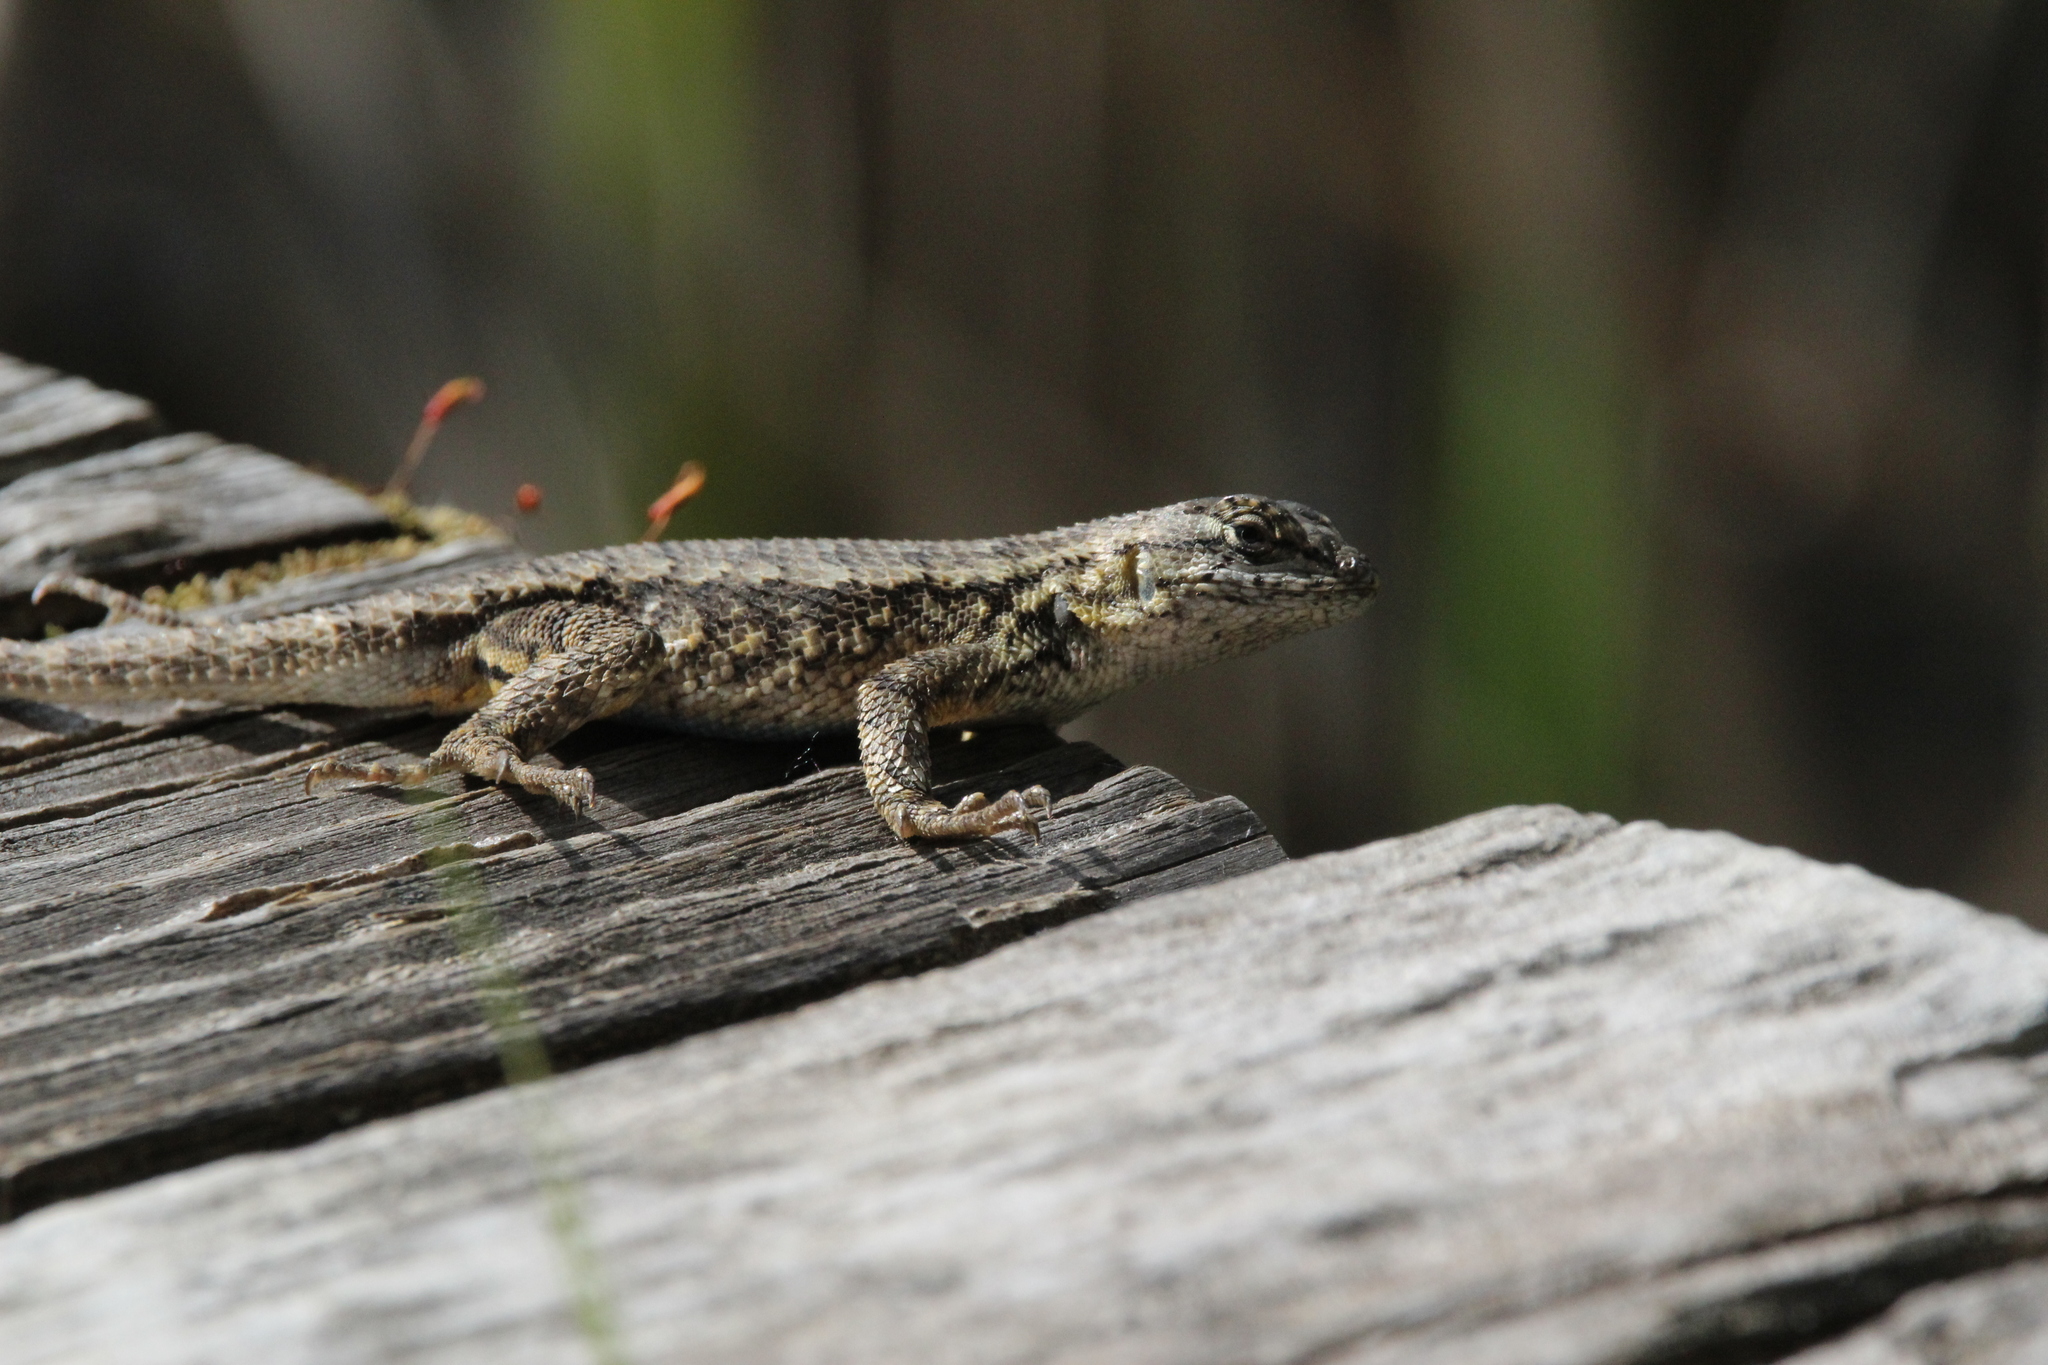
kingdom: Animalia
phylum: Chordata
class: Squamata
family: Phrynosomatidae
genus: Sceloporus
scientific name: Sceloporus occidentalis
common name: Western fence lizard
